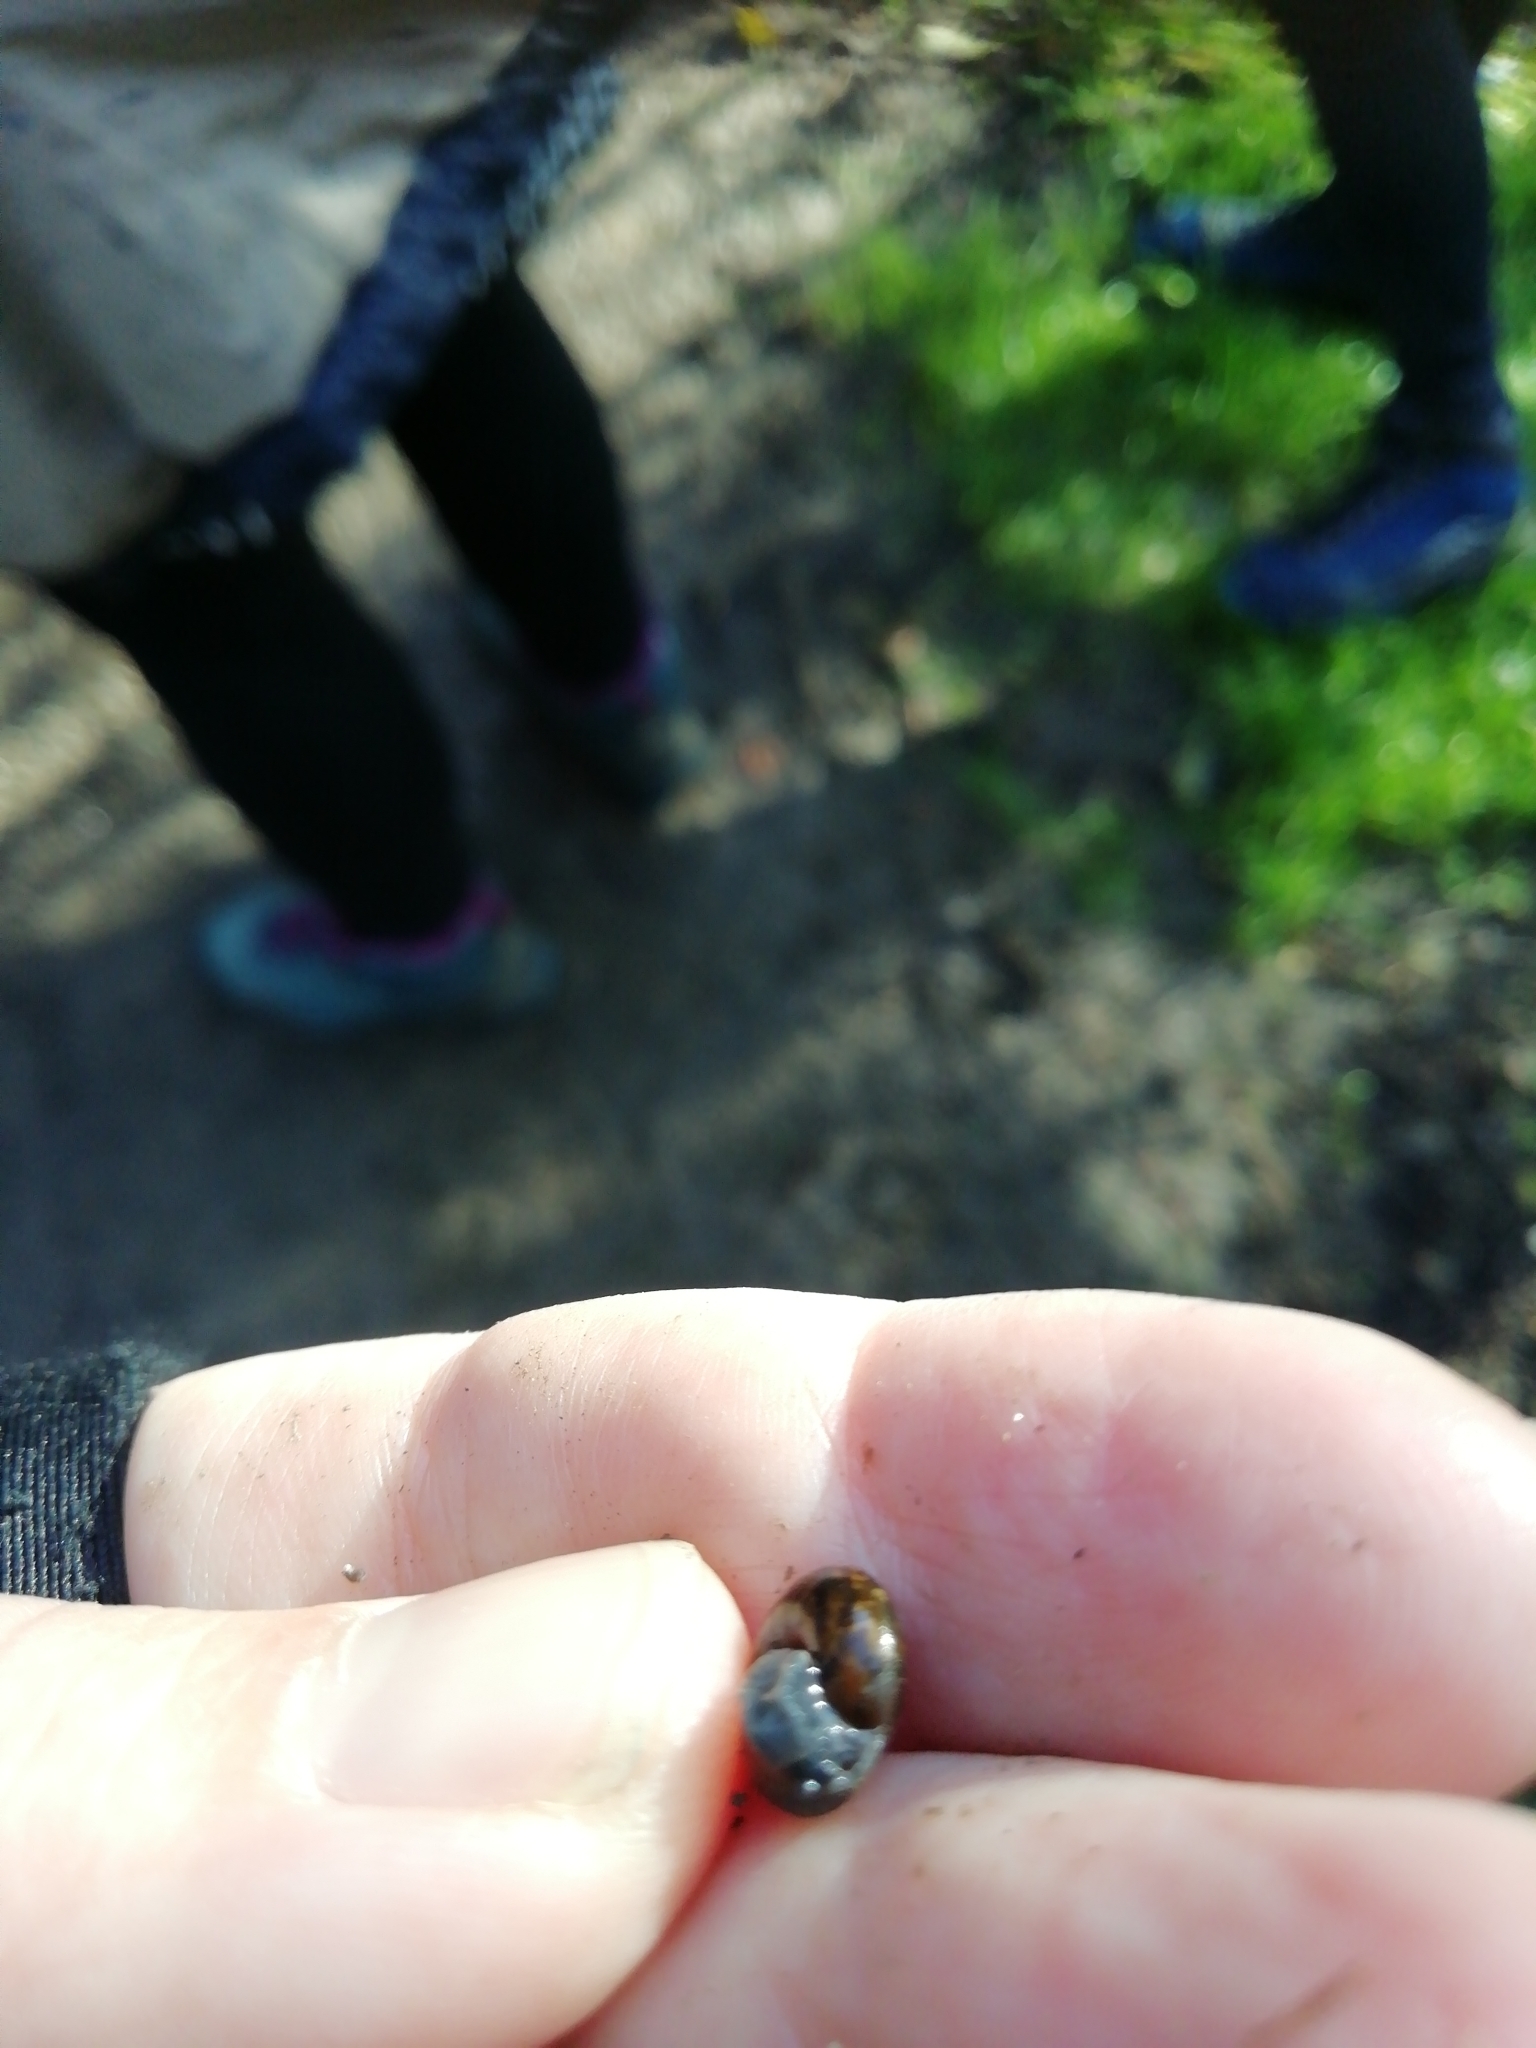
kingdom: Animalia
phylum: Mollusca
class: Gastropoda
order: Stylommatophora
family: Hygromiidae
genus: Trochulus
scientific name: Trochulus hispidus
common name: Hairy snail
